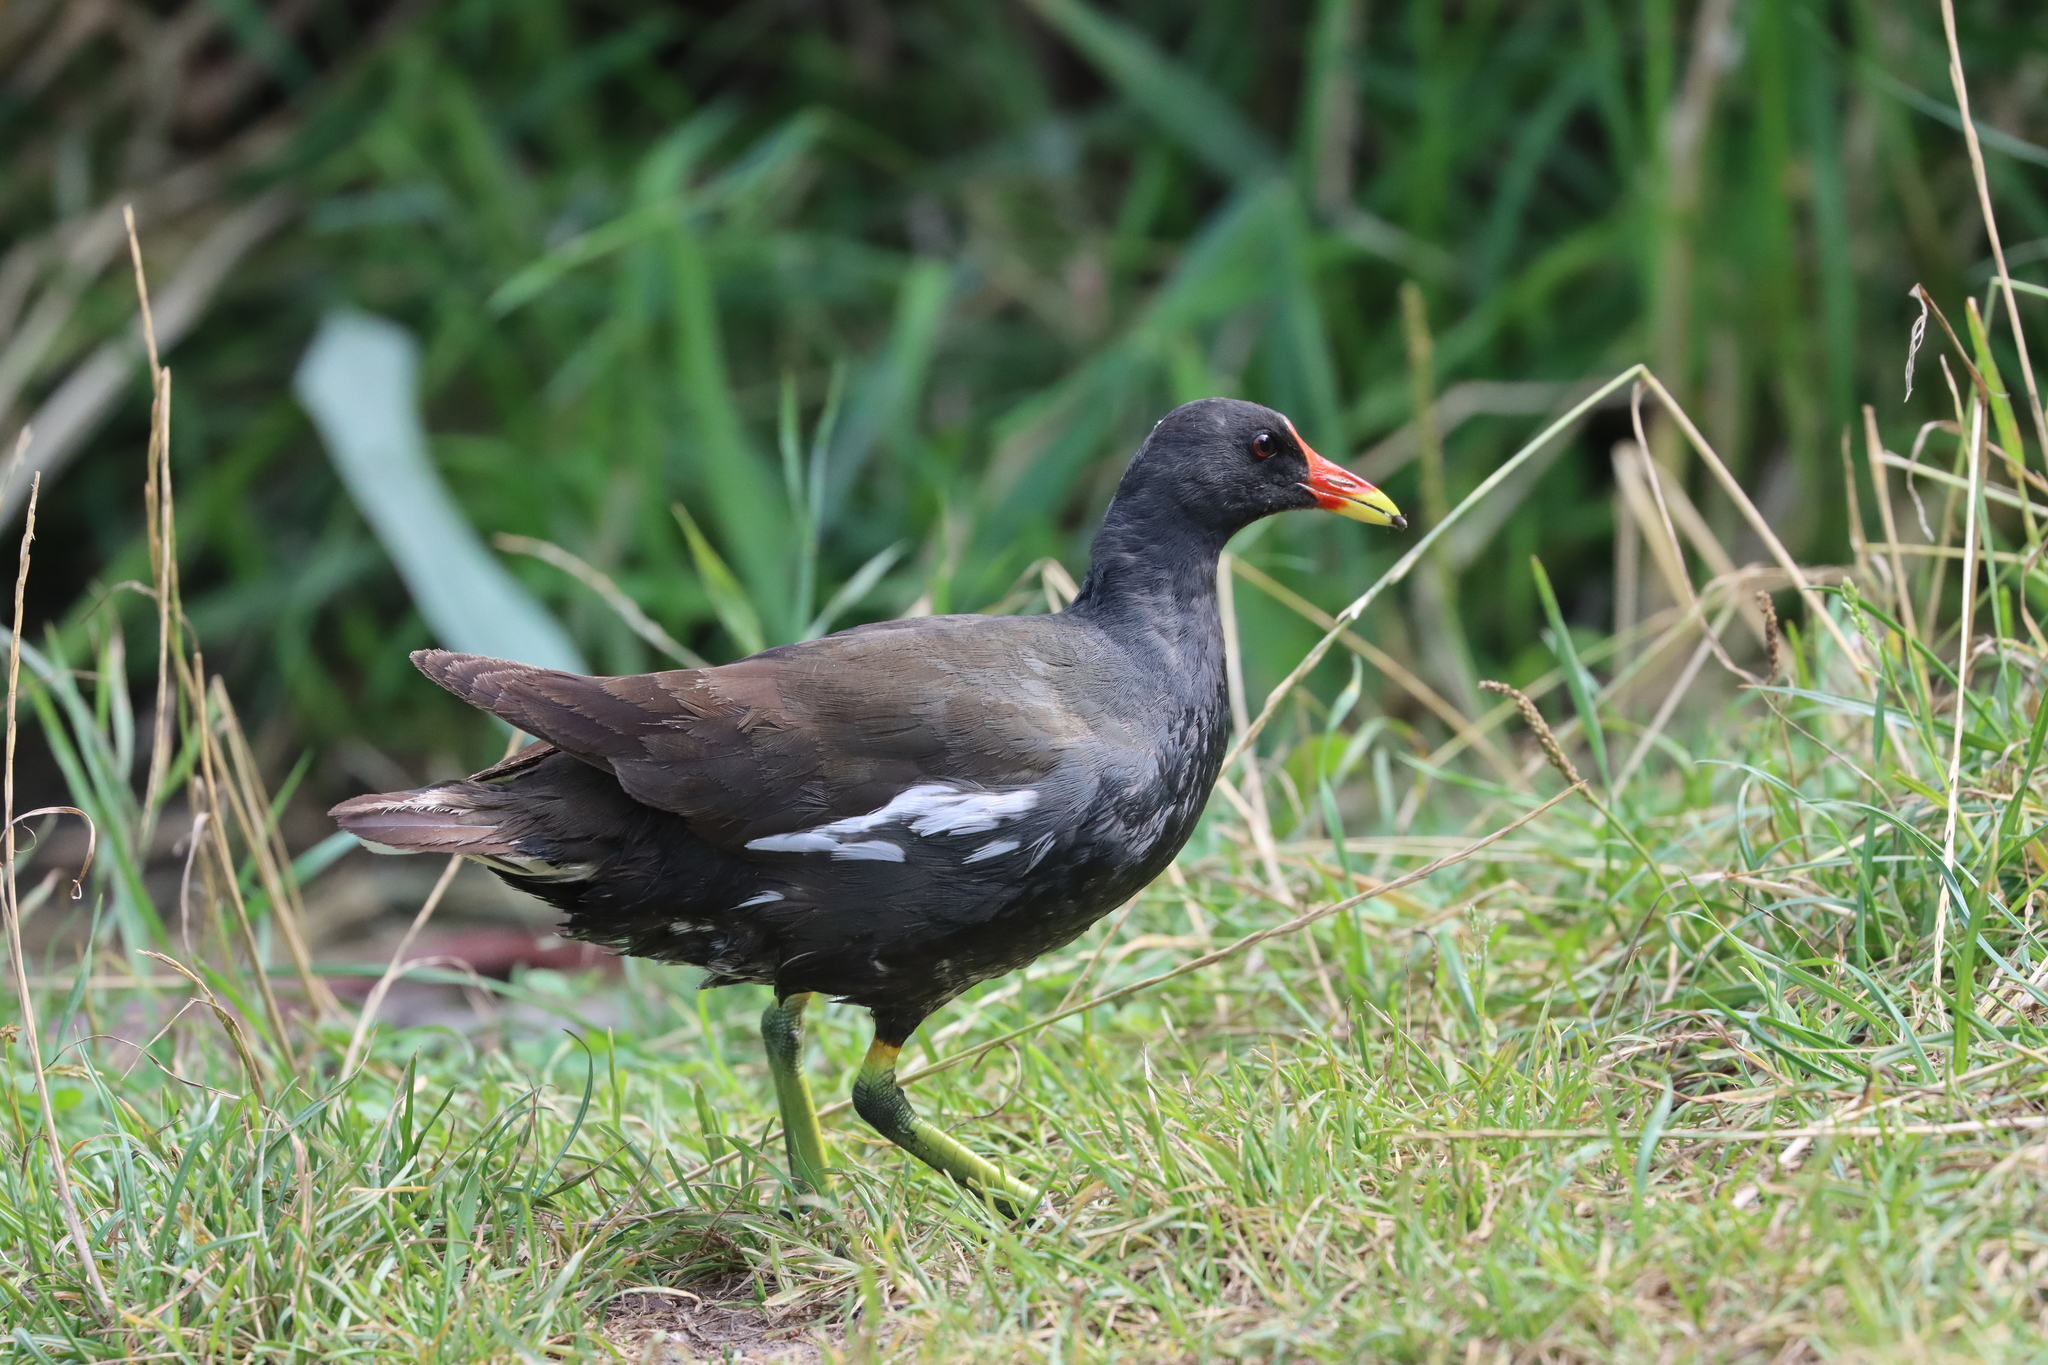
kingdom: Animalia
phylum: Chordata
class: Aves
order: Gruiformes
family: Rallidae
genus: Gallinula
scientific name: Gallinula chloropus
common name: Common moorhen
